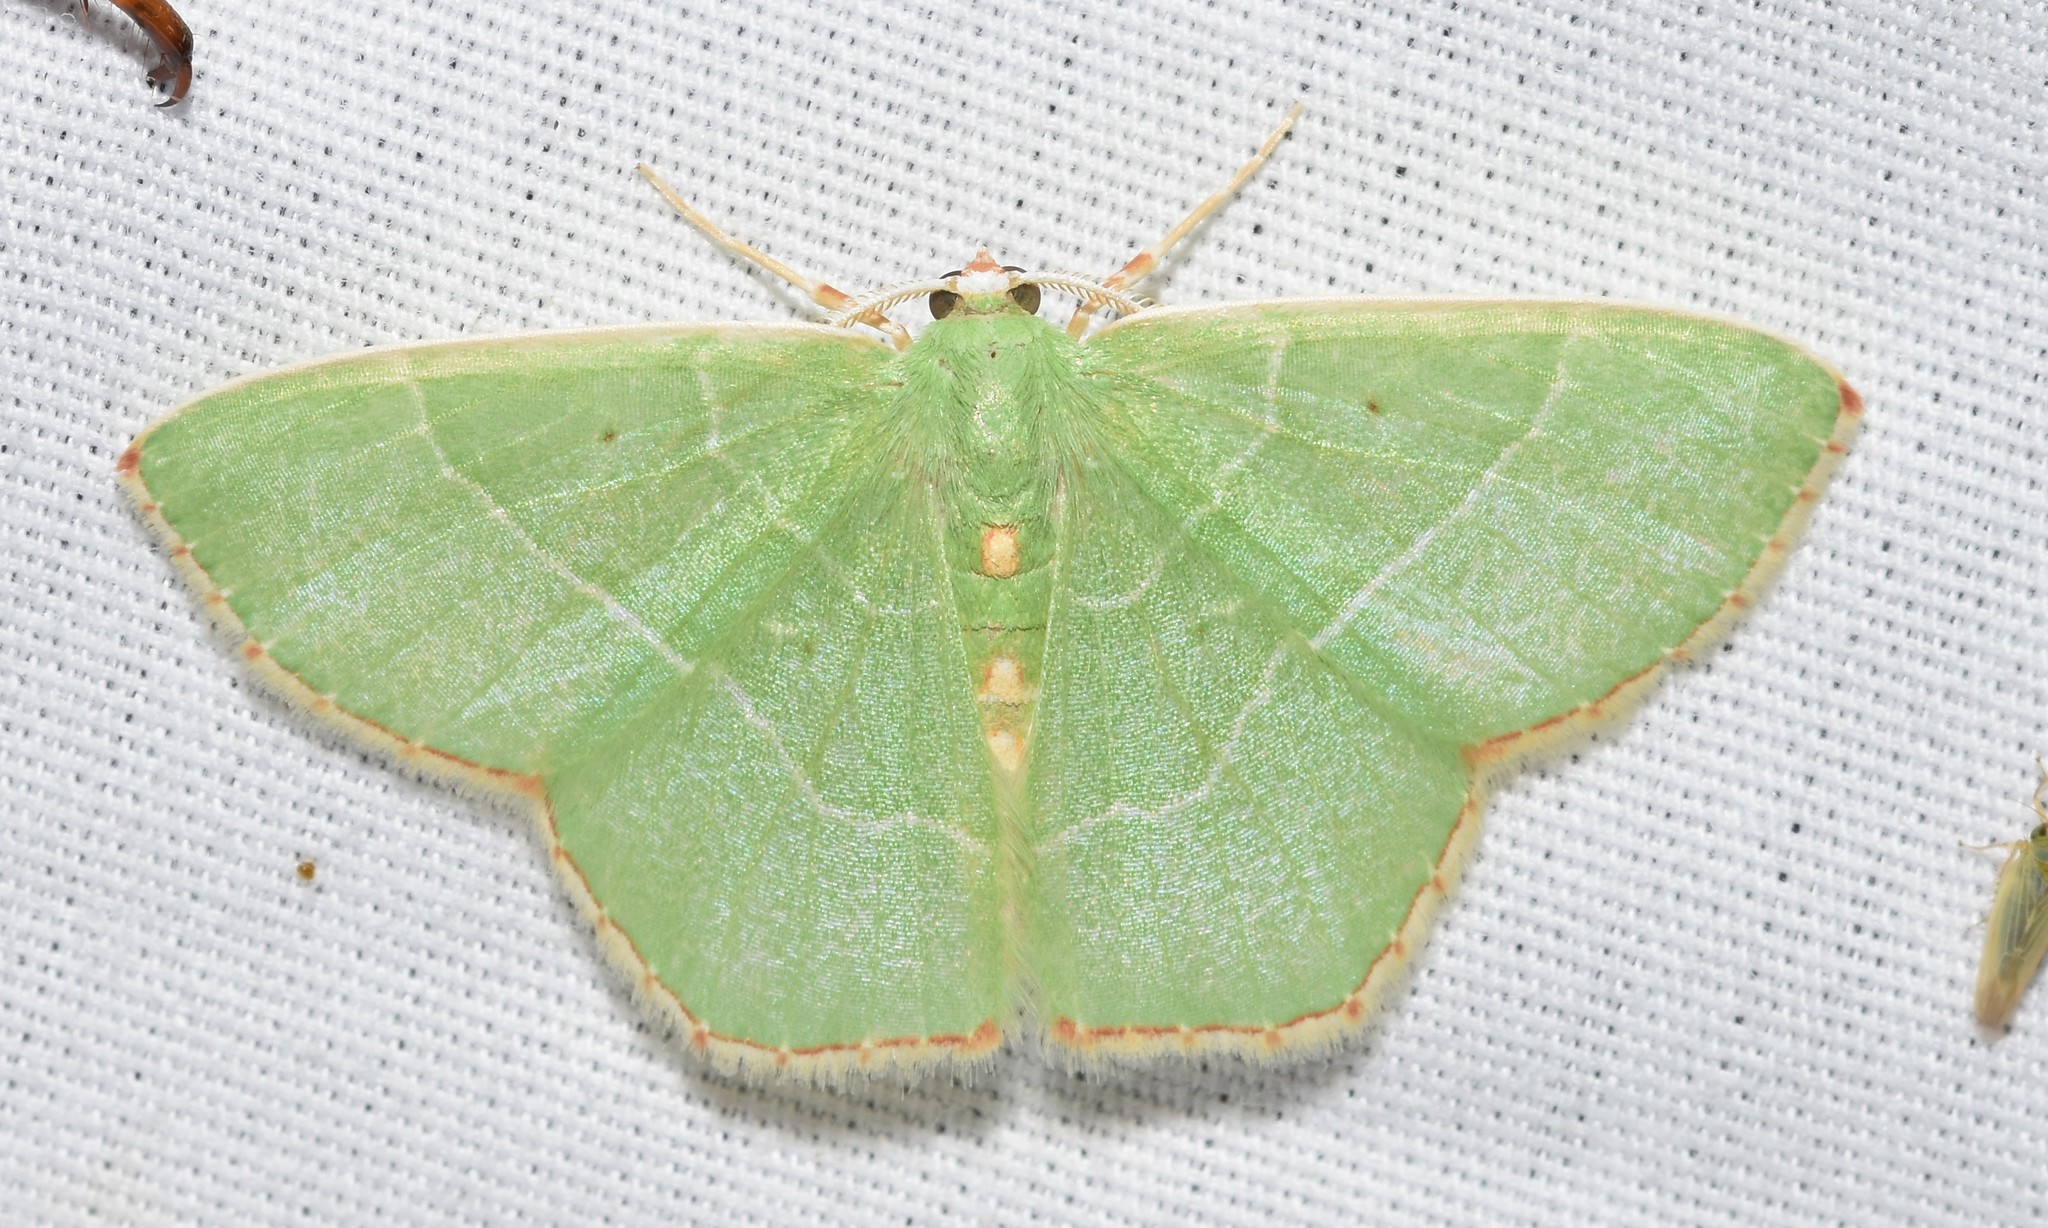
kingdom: Animalia
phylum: Arthropoda
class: Insecta
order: Lepidoptera
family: Geometridae
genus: Nemoria
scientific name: Nemoria bistriaria
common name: Red-fringed emerald
